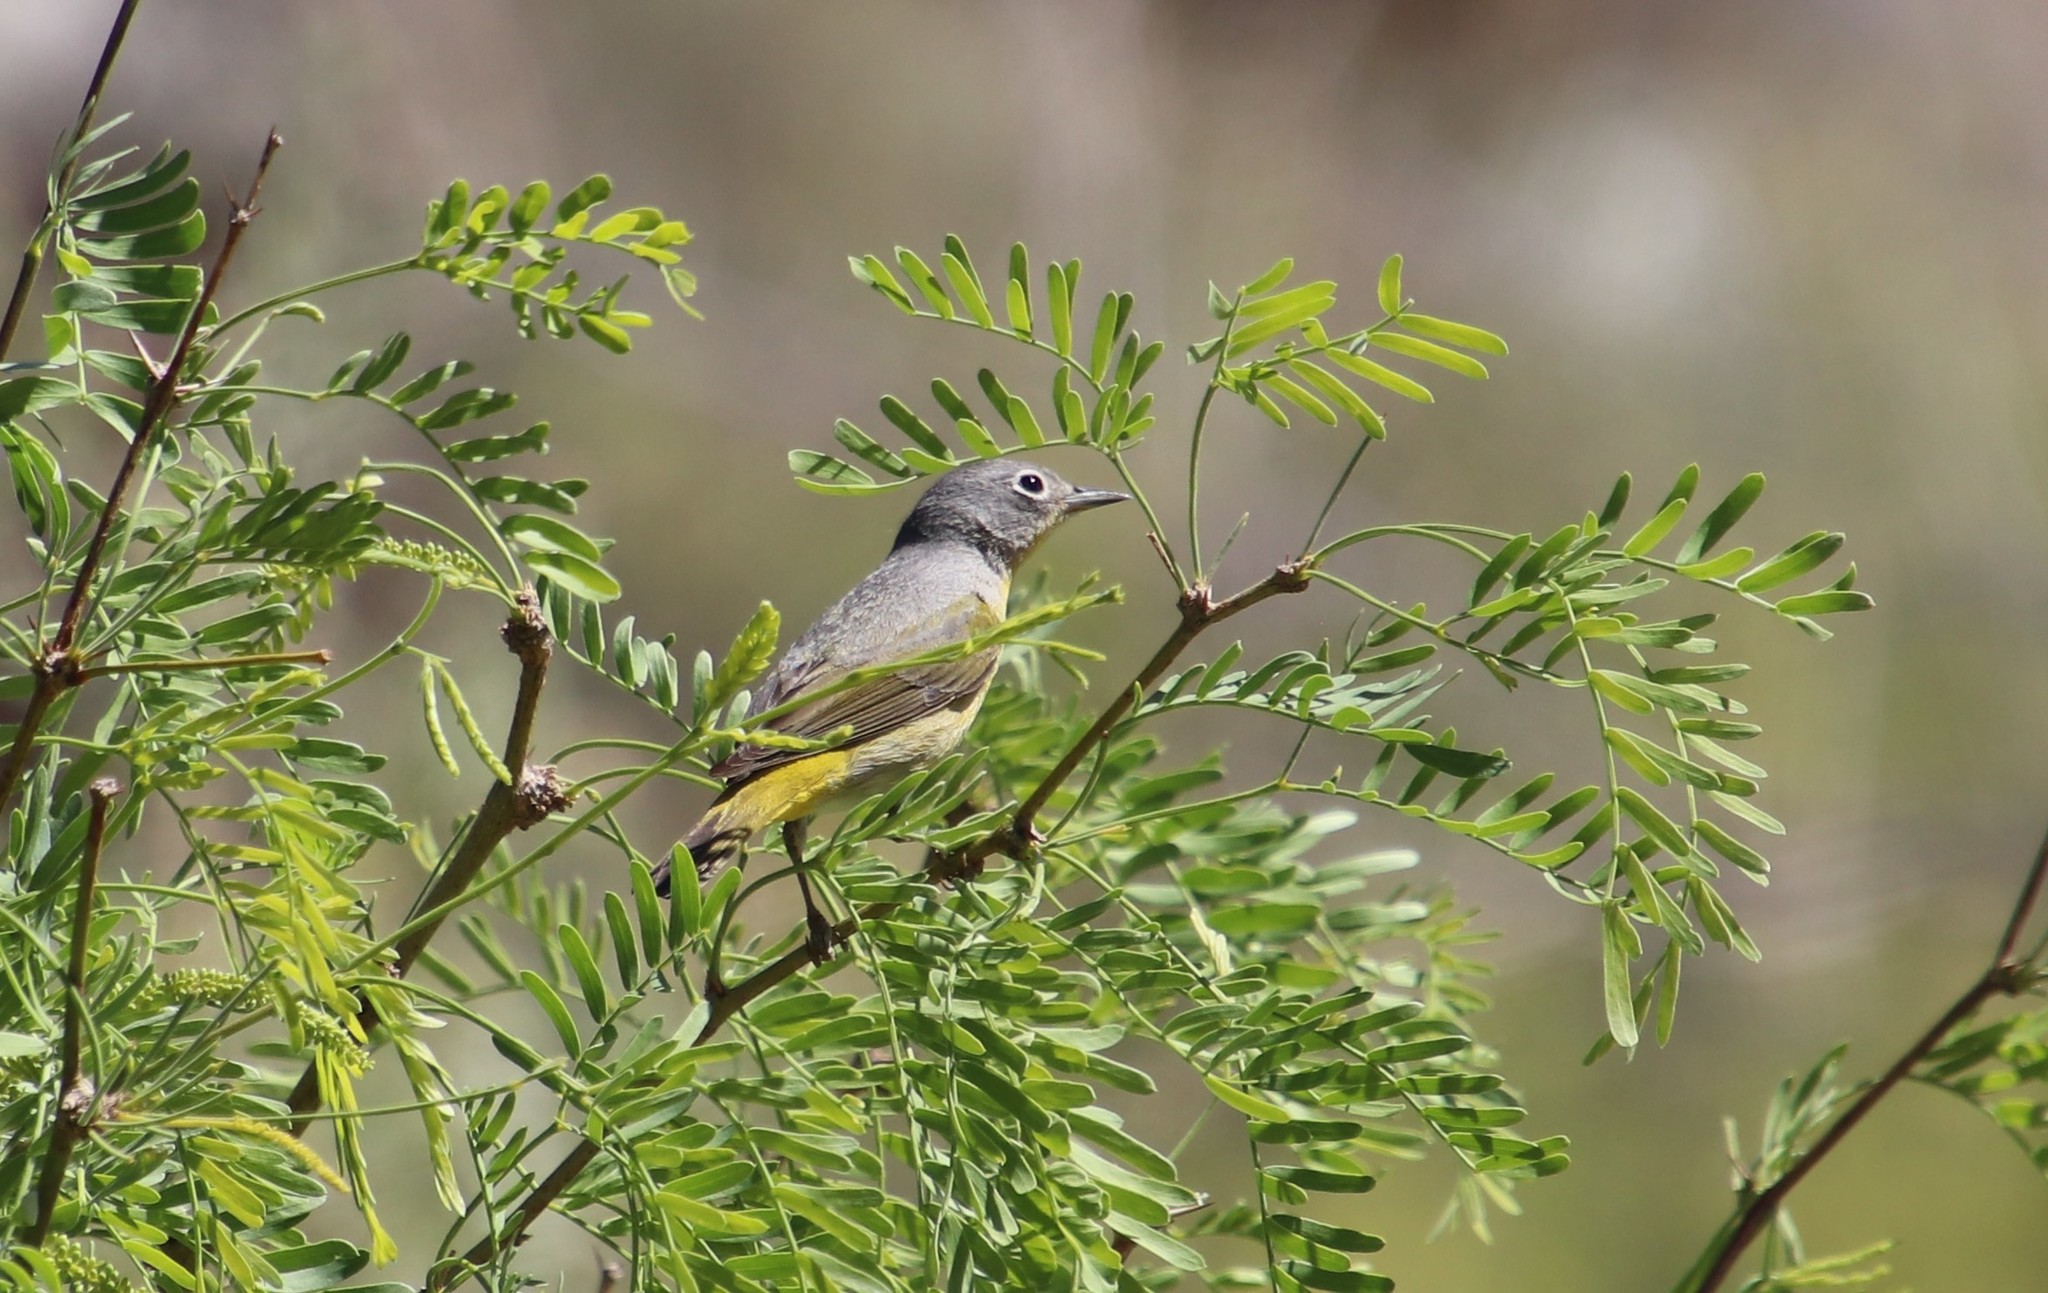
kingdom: Animalia
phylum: Chordata
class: Aves
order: Passeriformes
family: Parulidae
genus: Leiothlypis
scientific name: Leiothlypis ruficapilla
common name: Nashville warbler
